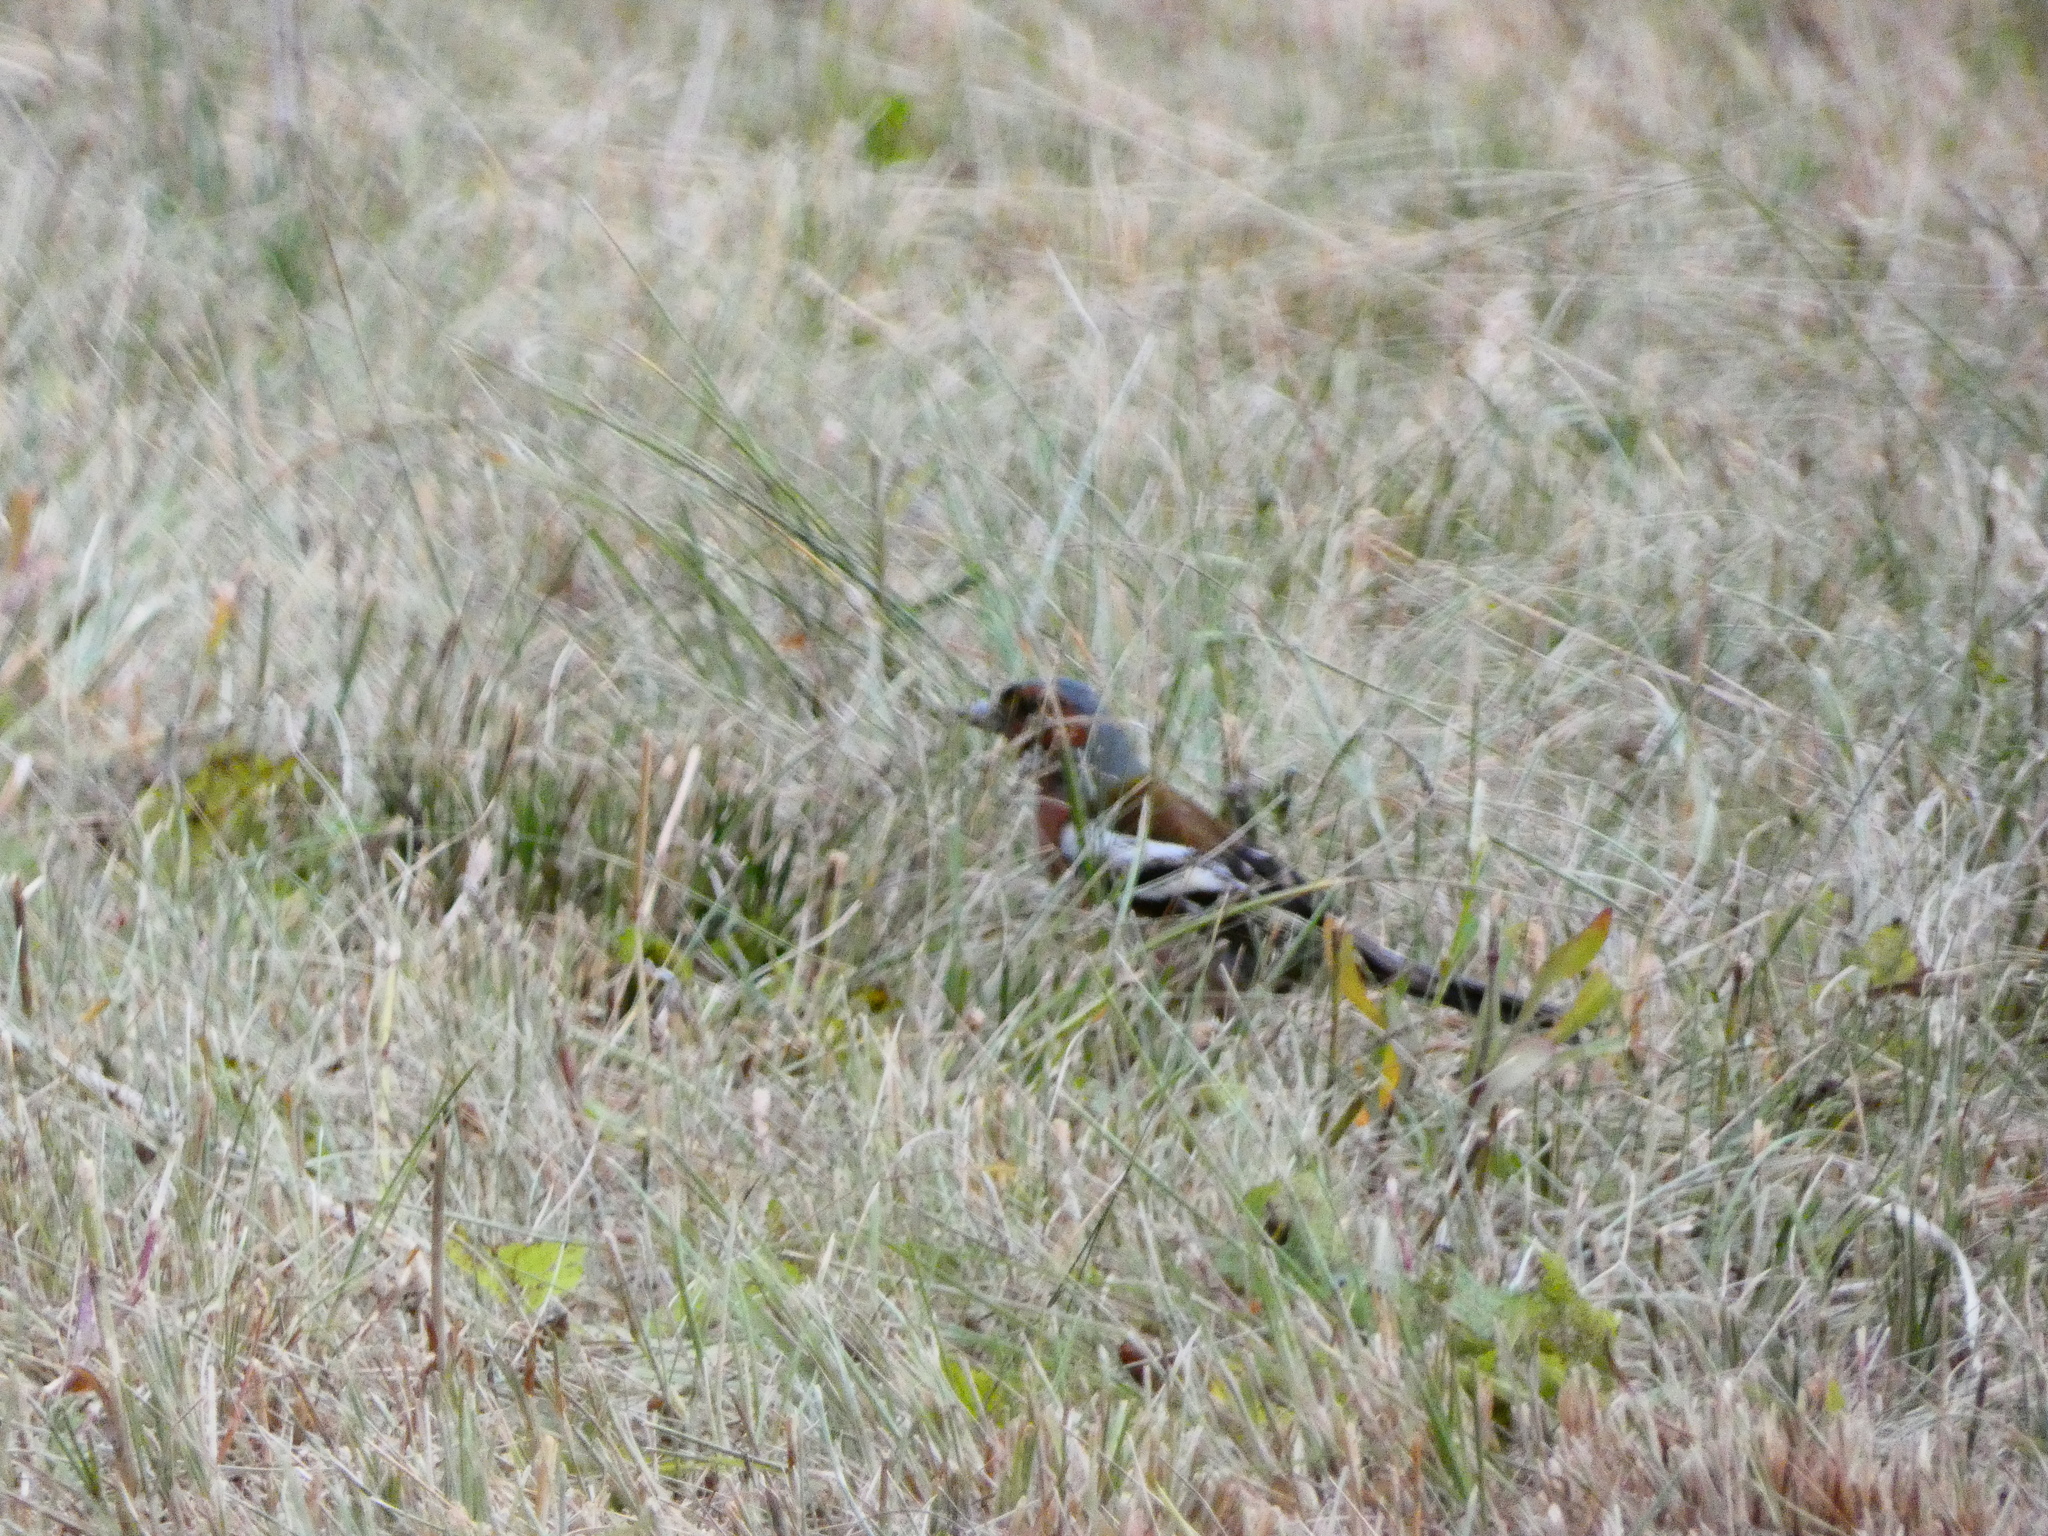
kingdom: Animalia
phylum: Chordata
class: Aves
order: Passeriformes
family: Fringillidae
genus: Fringilla
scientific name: Fringilla coelebs
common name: Common chaffinch
